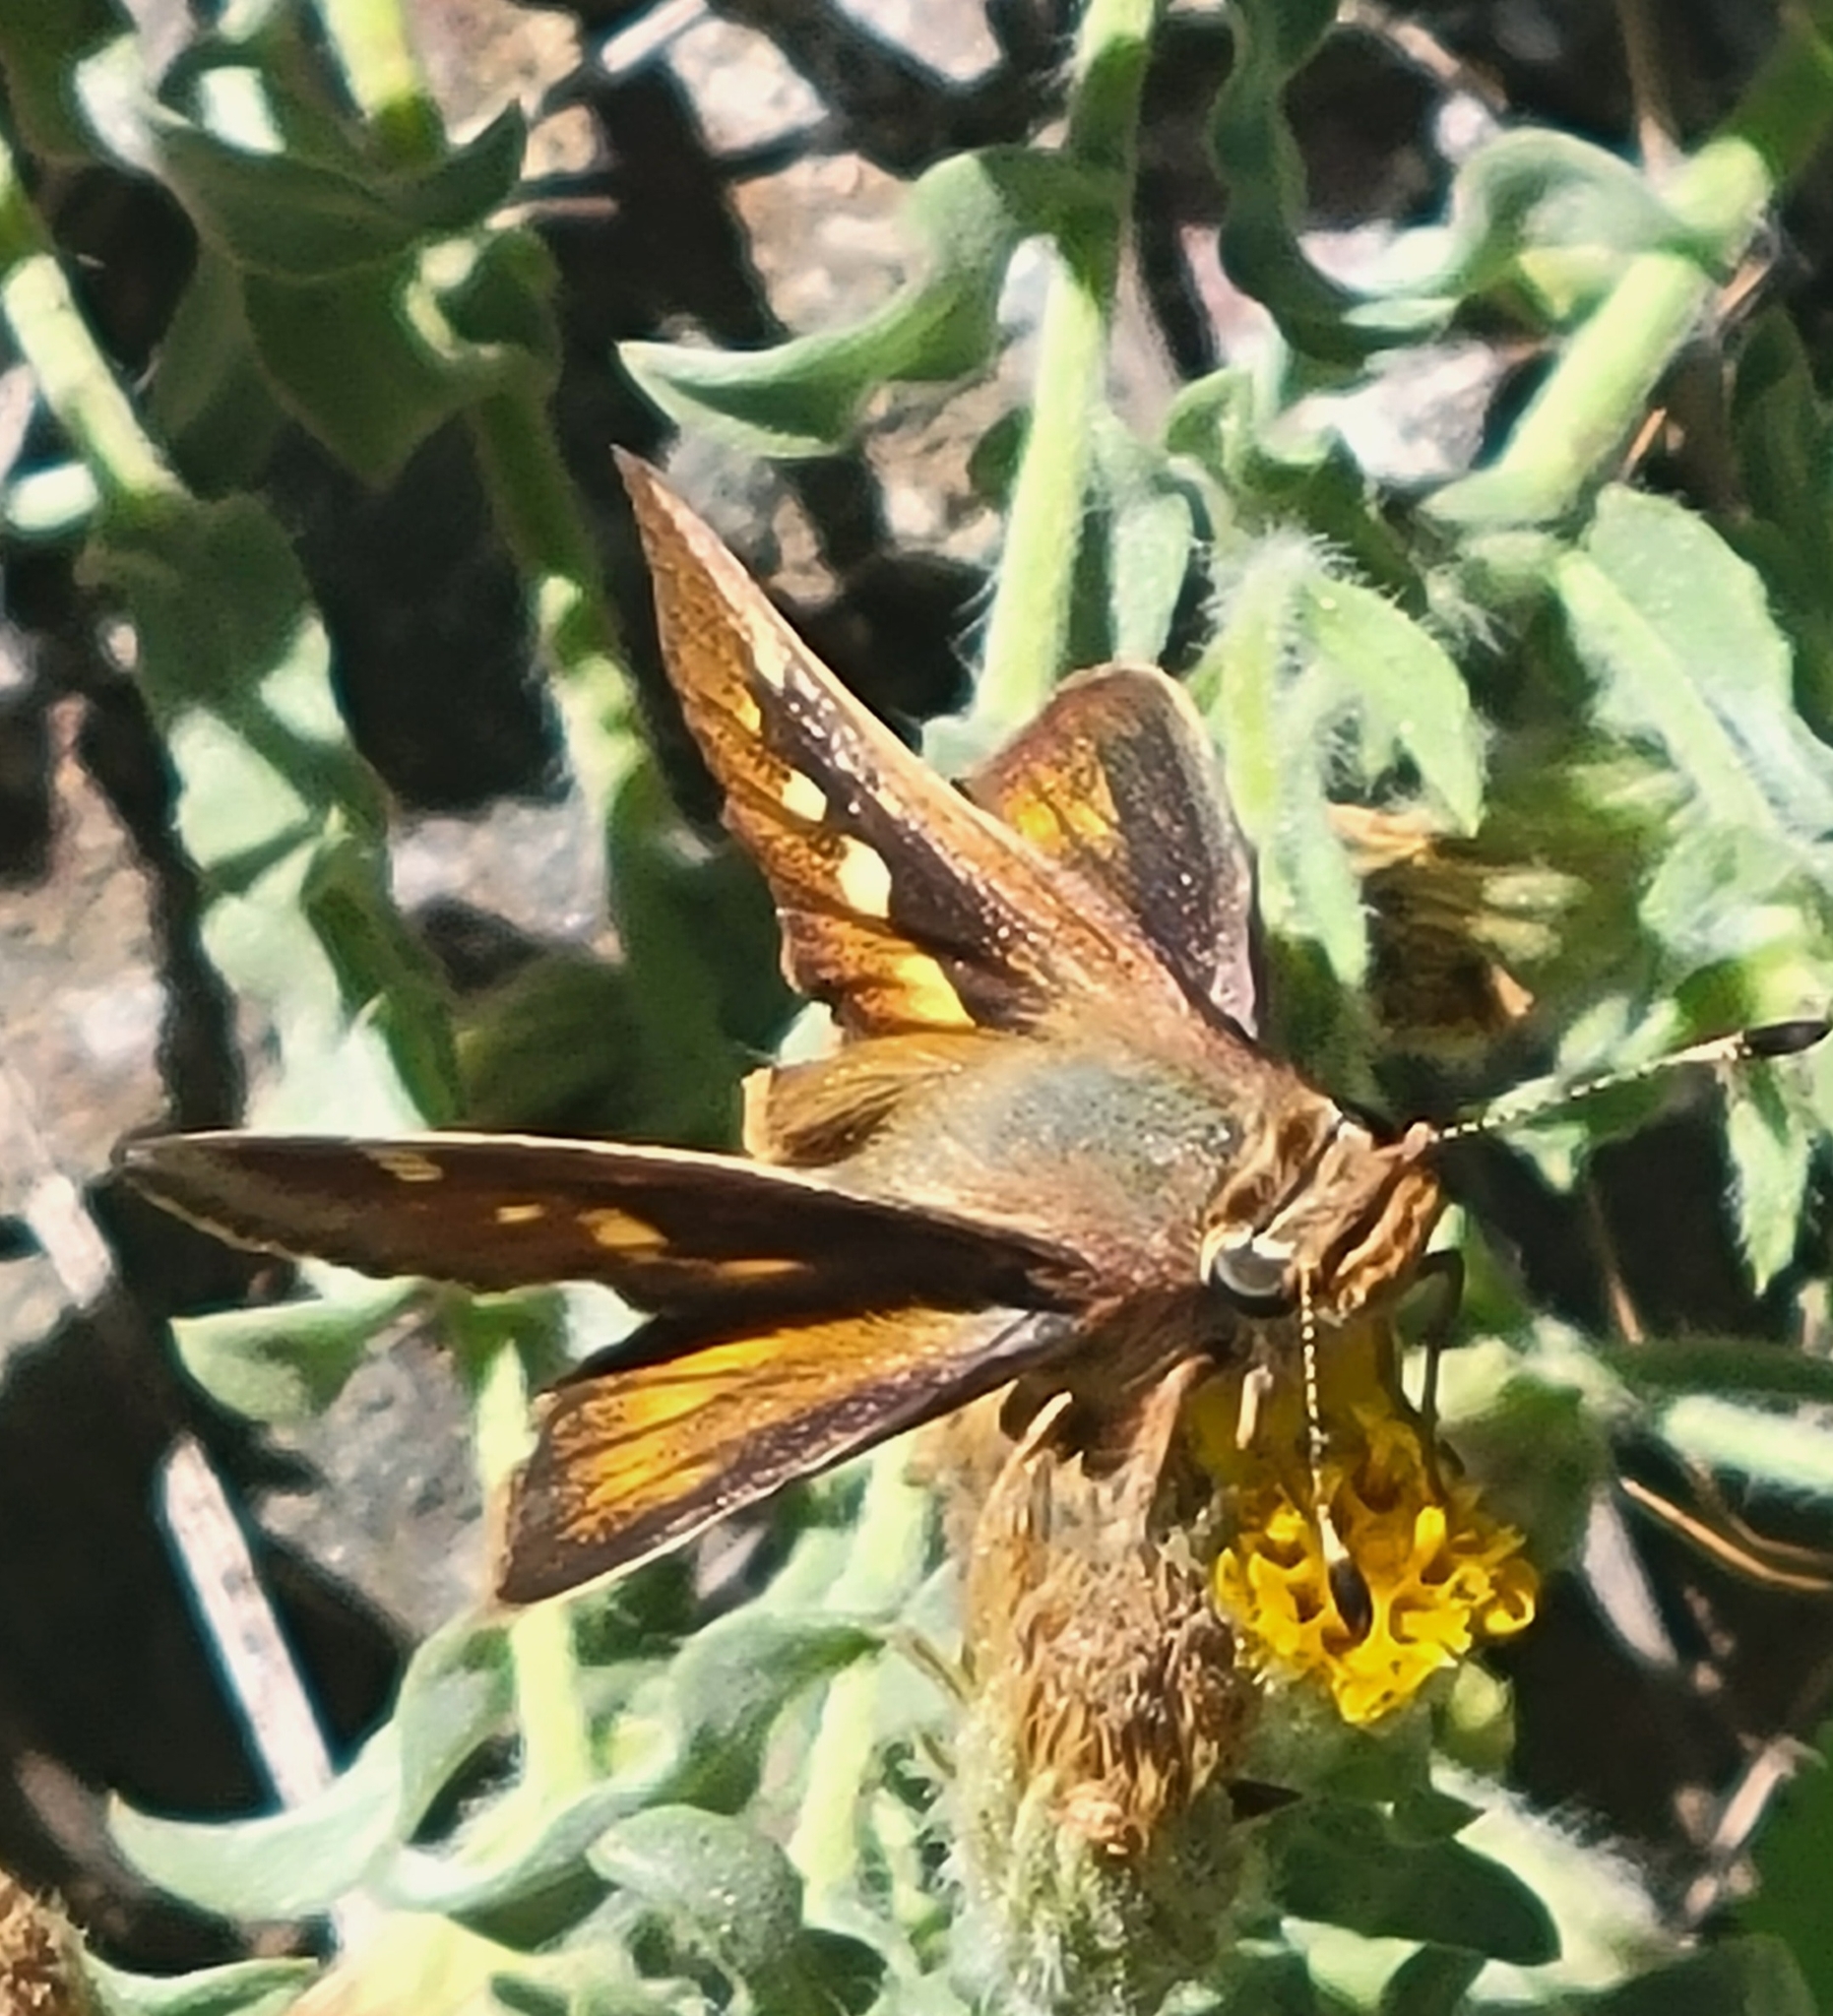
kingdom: Animalia
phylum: Arthropoda
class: Insecta
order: Lepidoptera
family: Hesperiidae
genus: Lon
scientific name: Lon melane
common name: Umber skipper
